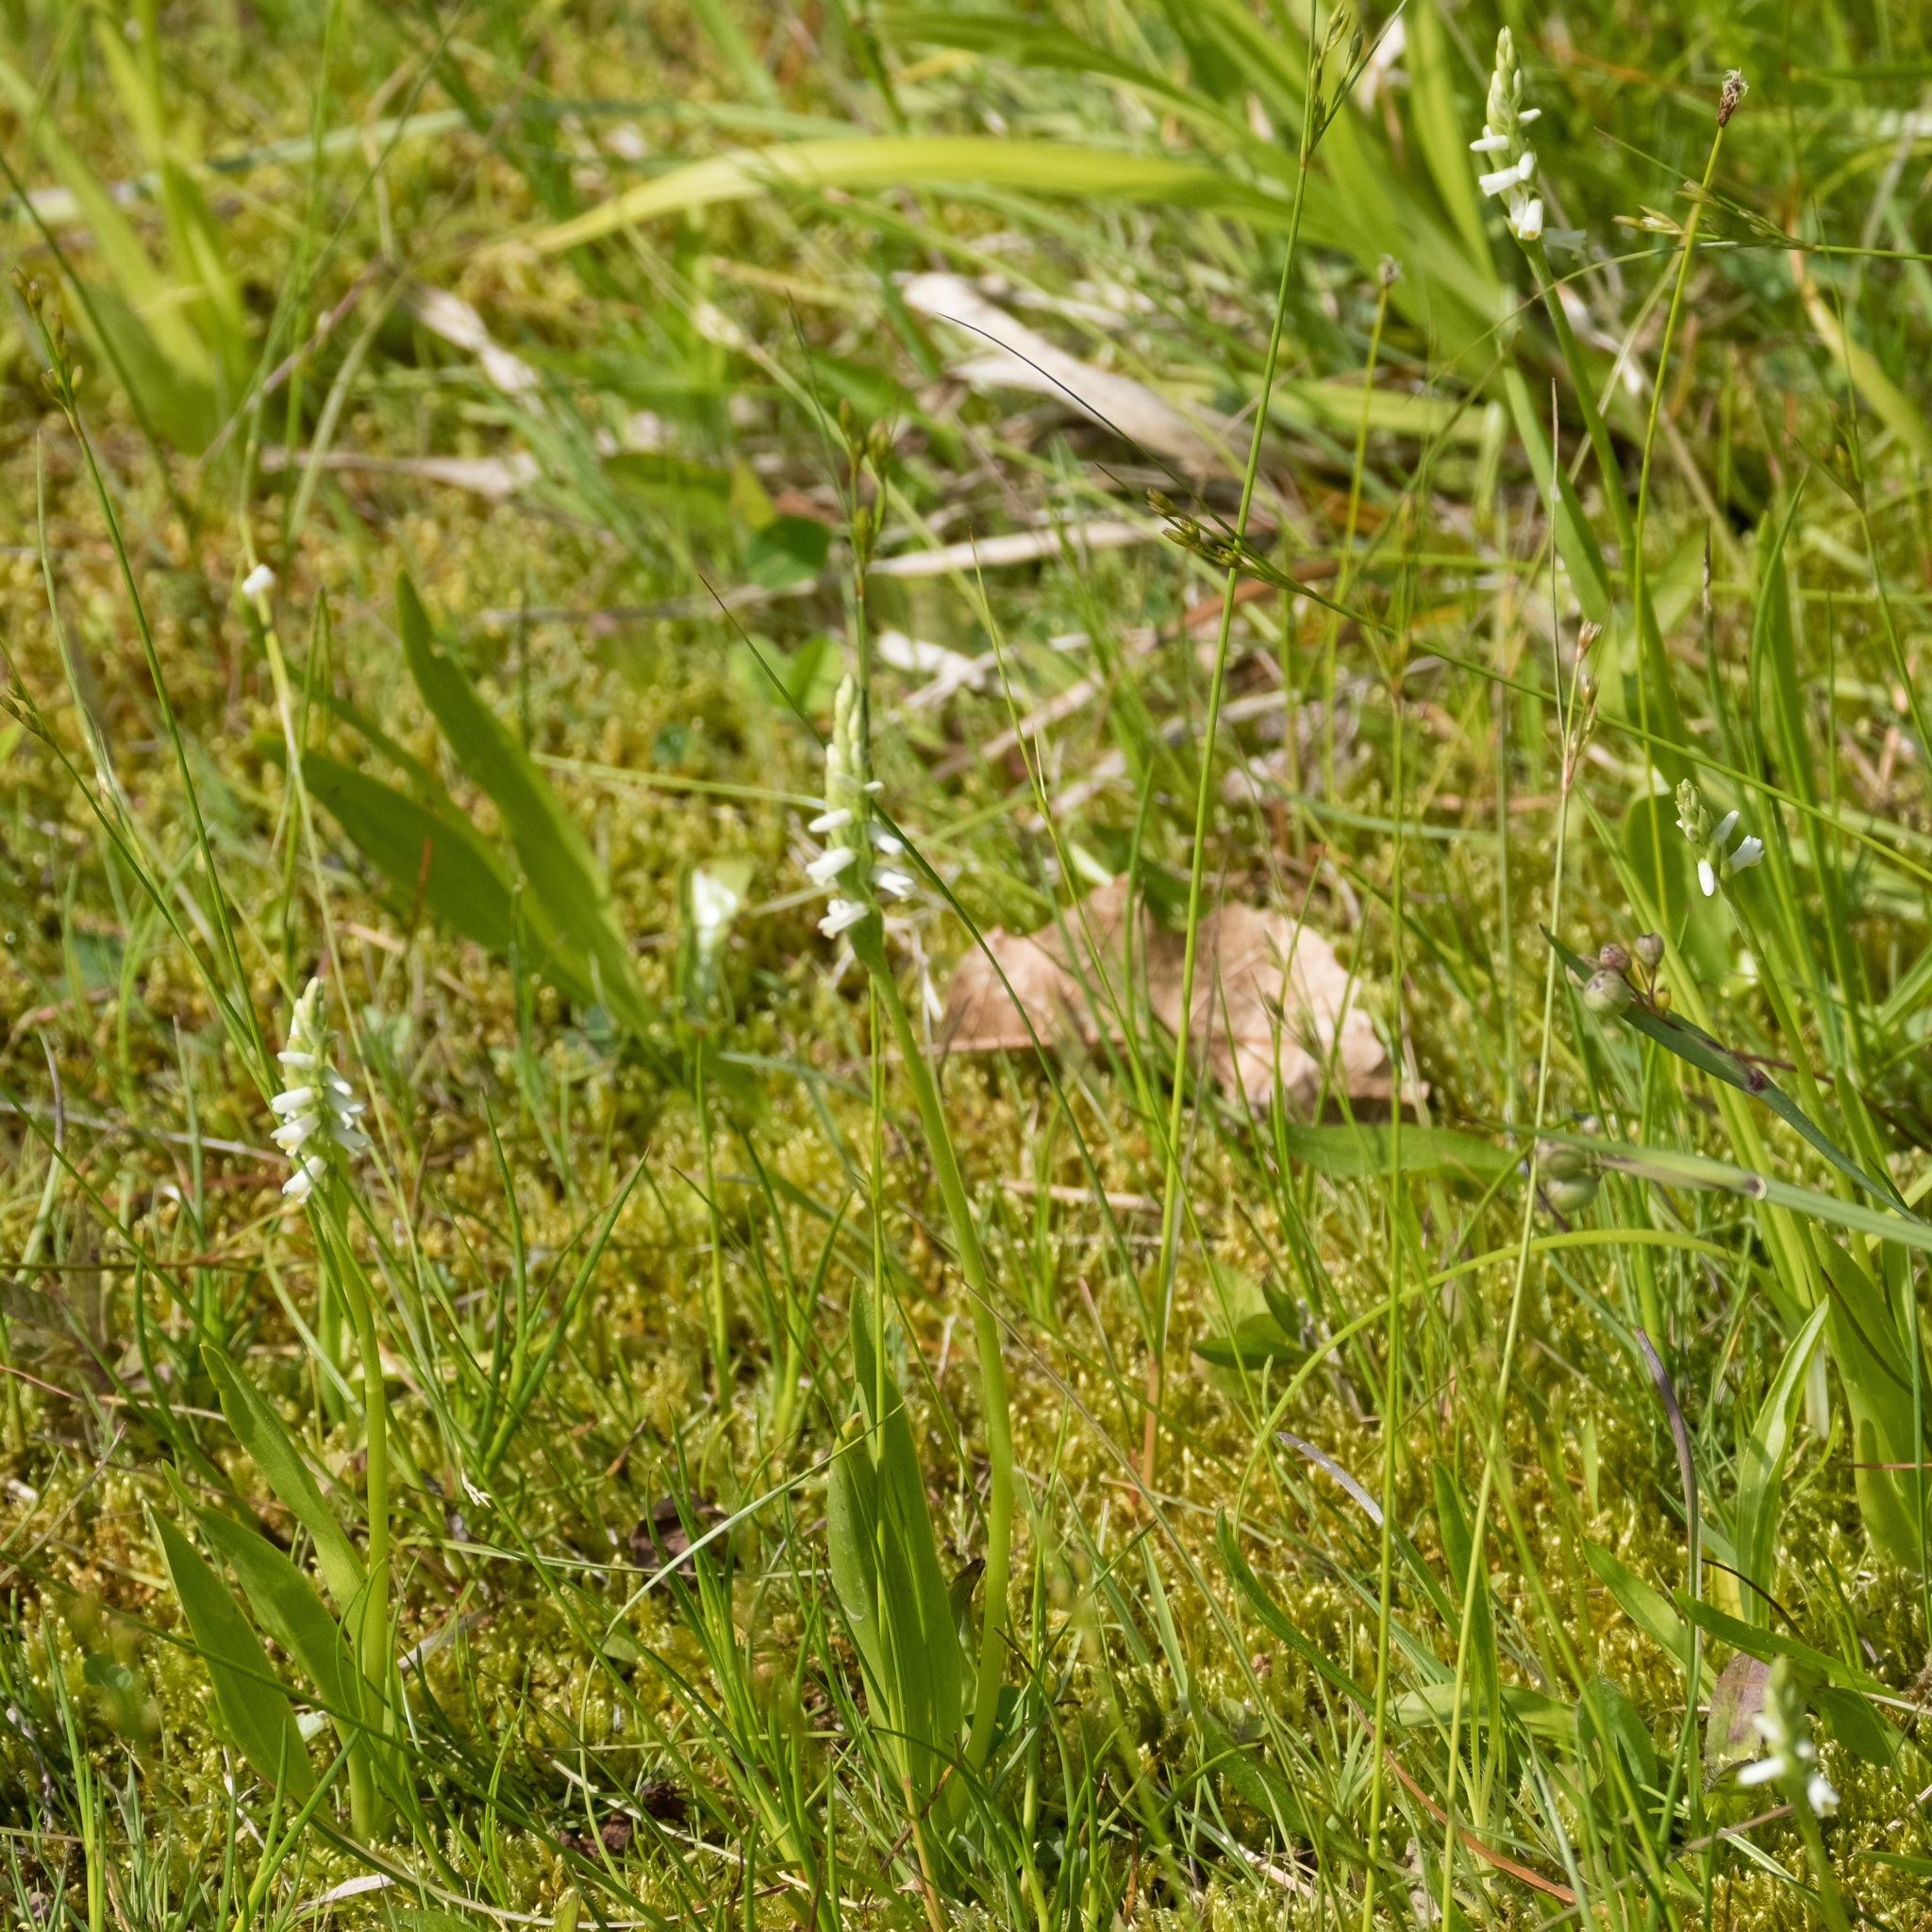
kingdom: Plantae
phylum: Tracheophyta
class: Liliopsida
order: Asparagales
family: Orchidaceae
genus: Spiranthes
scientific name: Spiranthes lucida
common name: Broad-leaved ladies'-tresses
